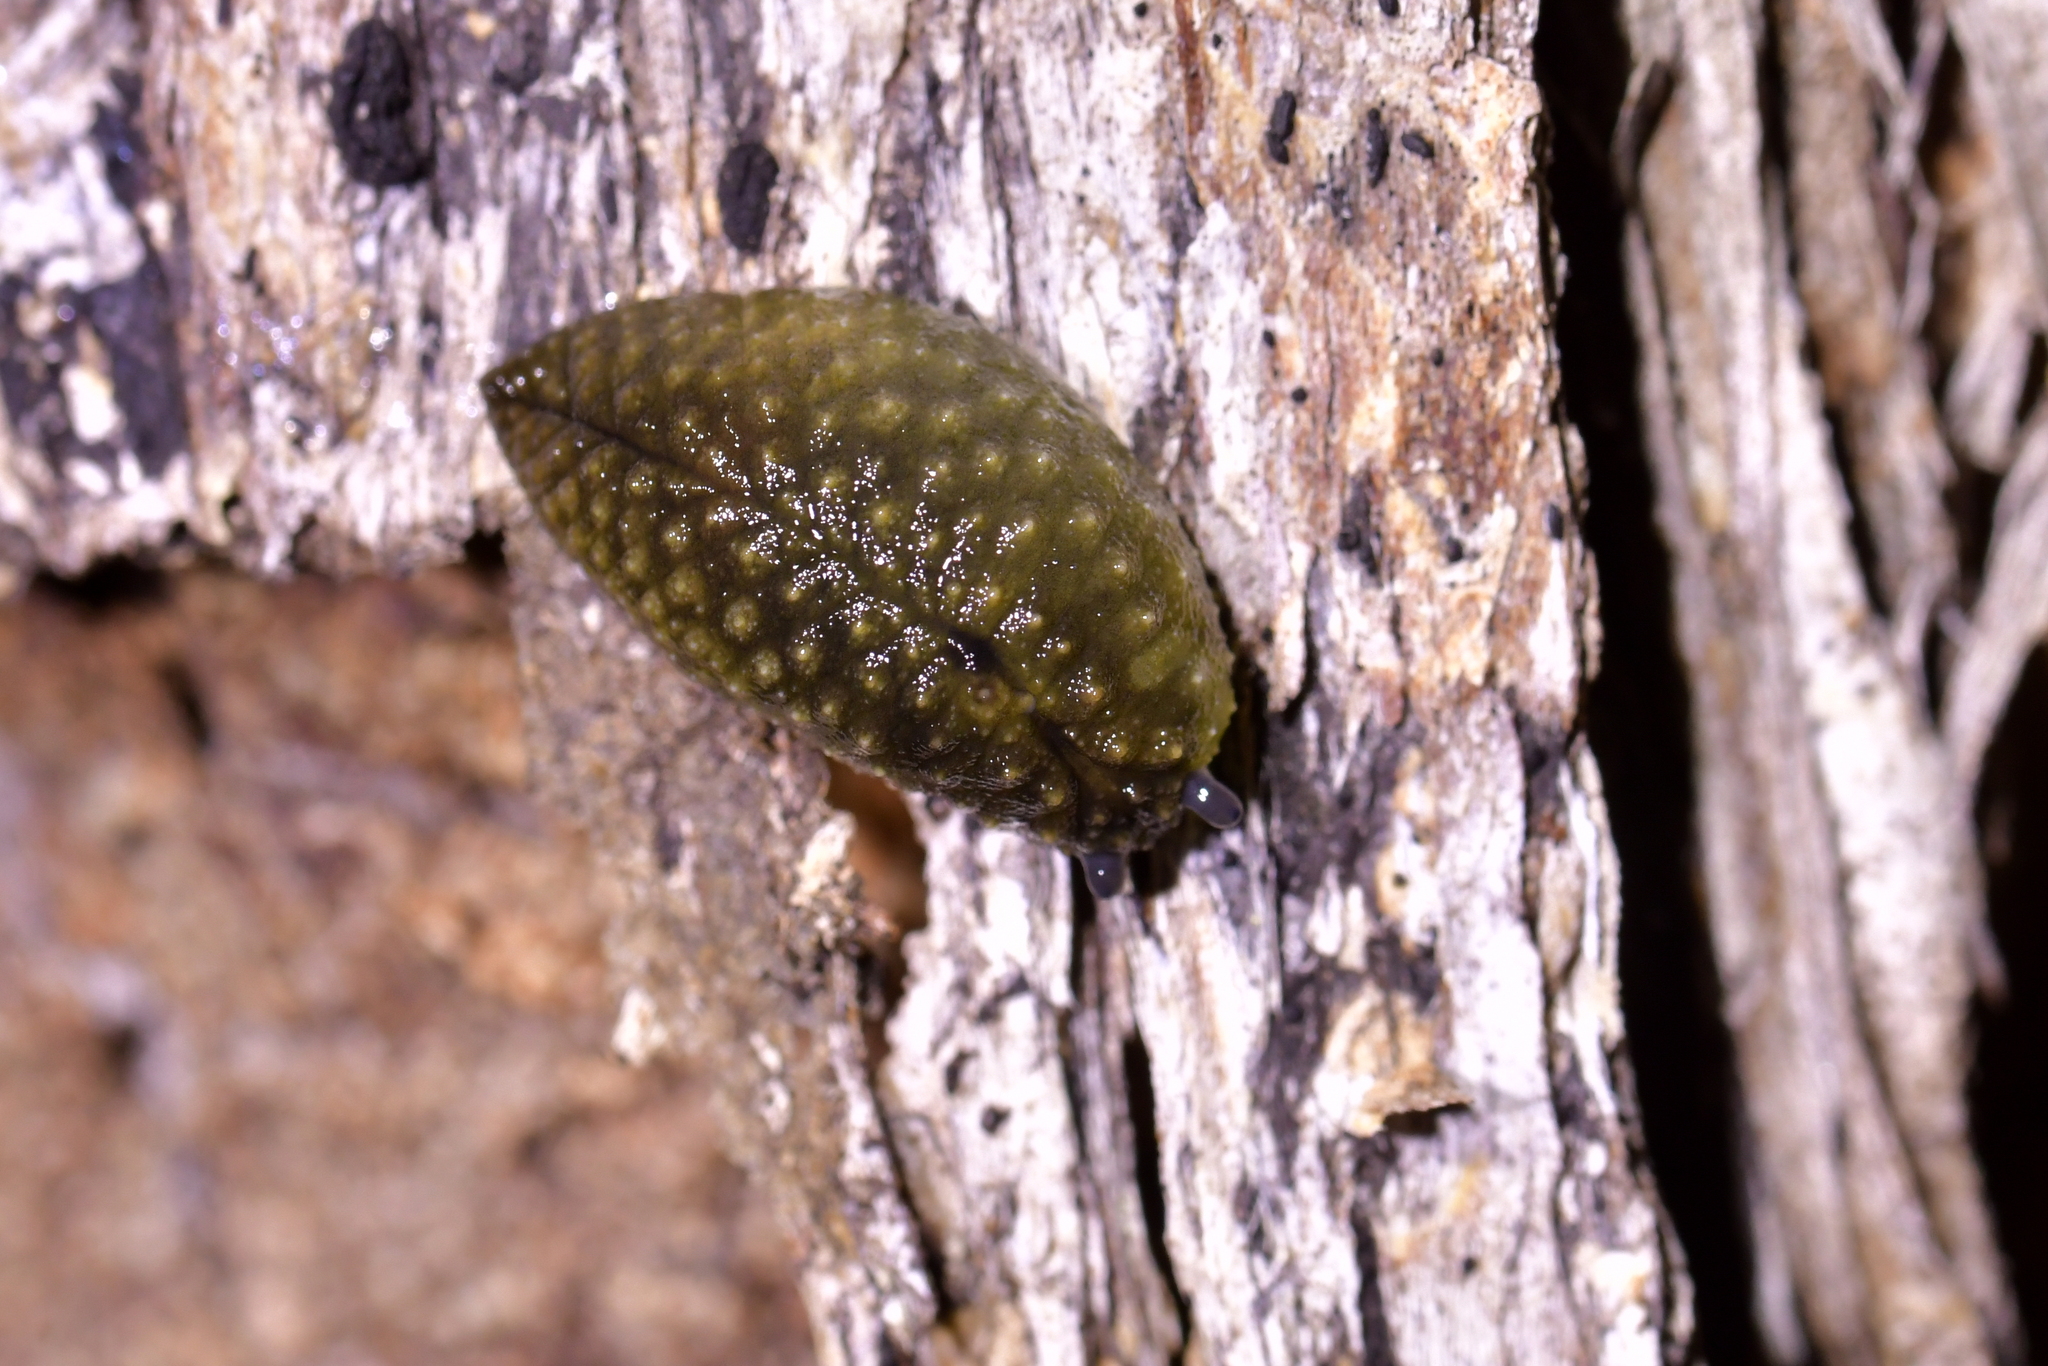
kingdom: Animalia
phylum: Mollusca
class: Gastropoda
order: Stylommatophora
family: Athoracophoridae
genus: Athoracophorus
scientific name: Athoracophorus papillatus
